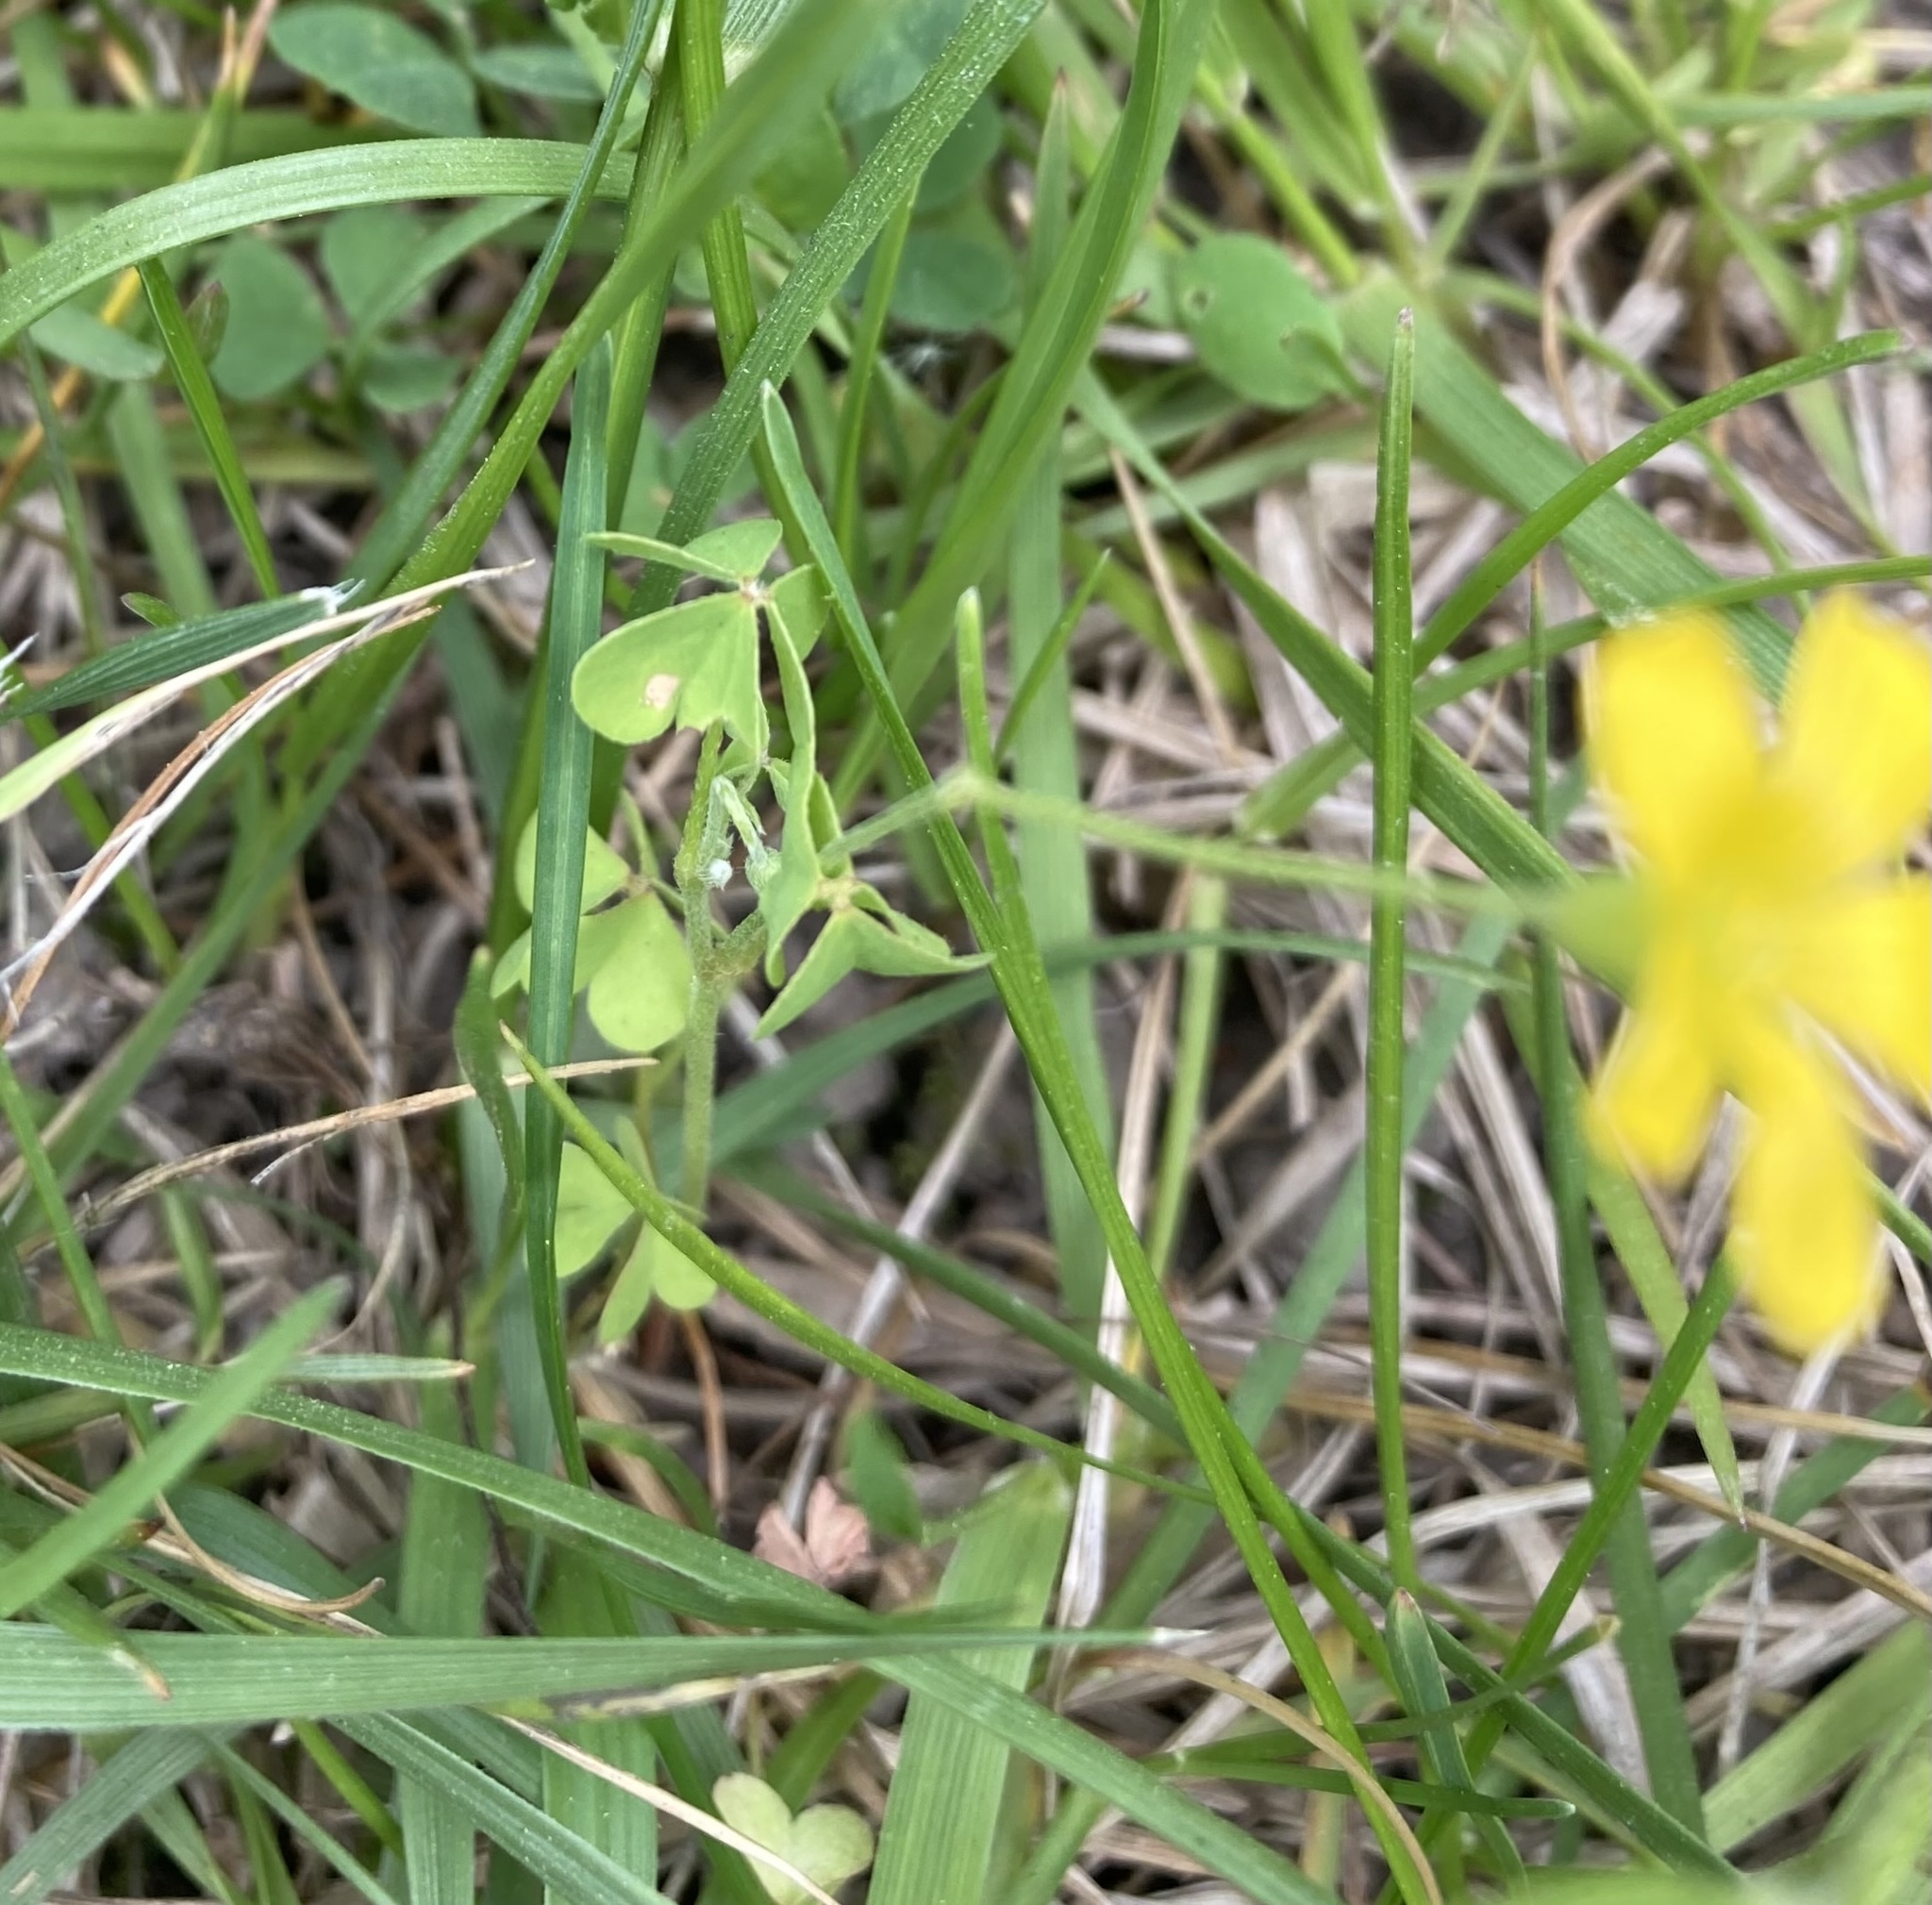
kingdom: Plantae
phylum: Tracheophyta
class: Magnoliopsida
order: Oxalidales
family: Oxalidaceae
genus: Oxalis
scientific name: Oxalis dillenii
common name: Sussex yellow-sorrel
